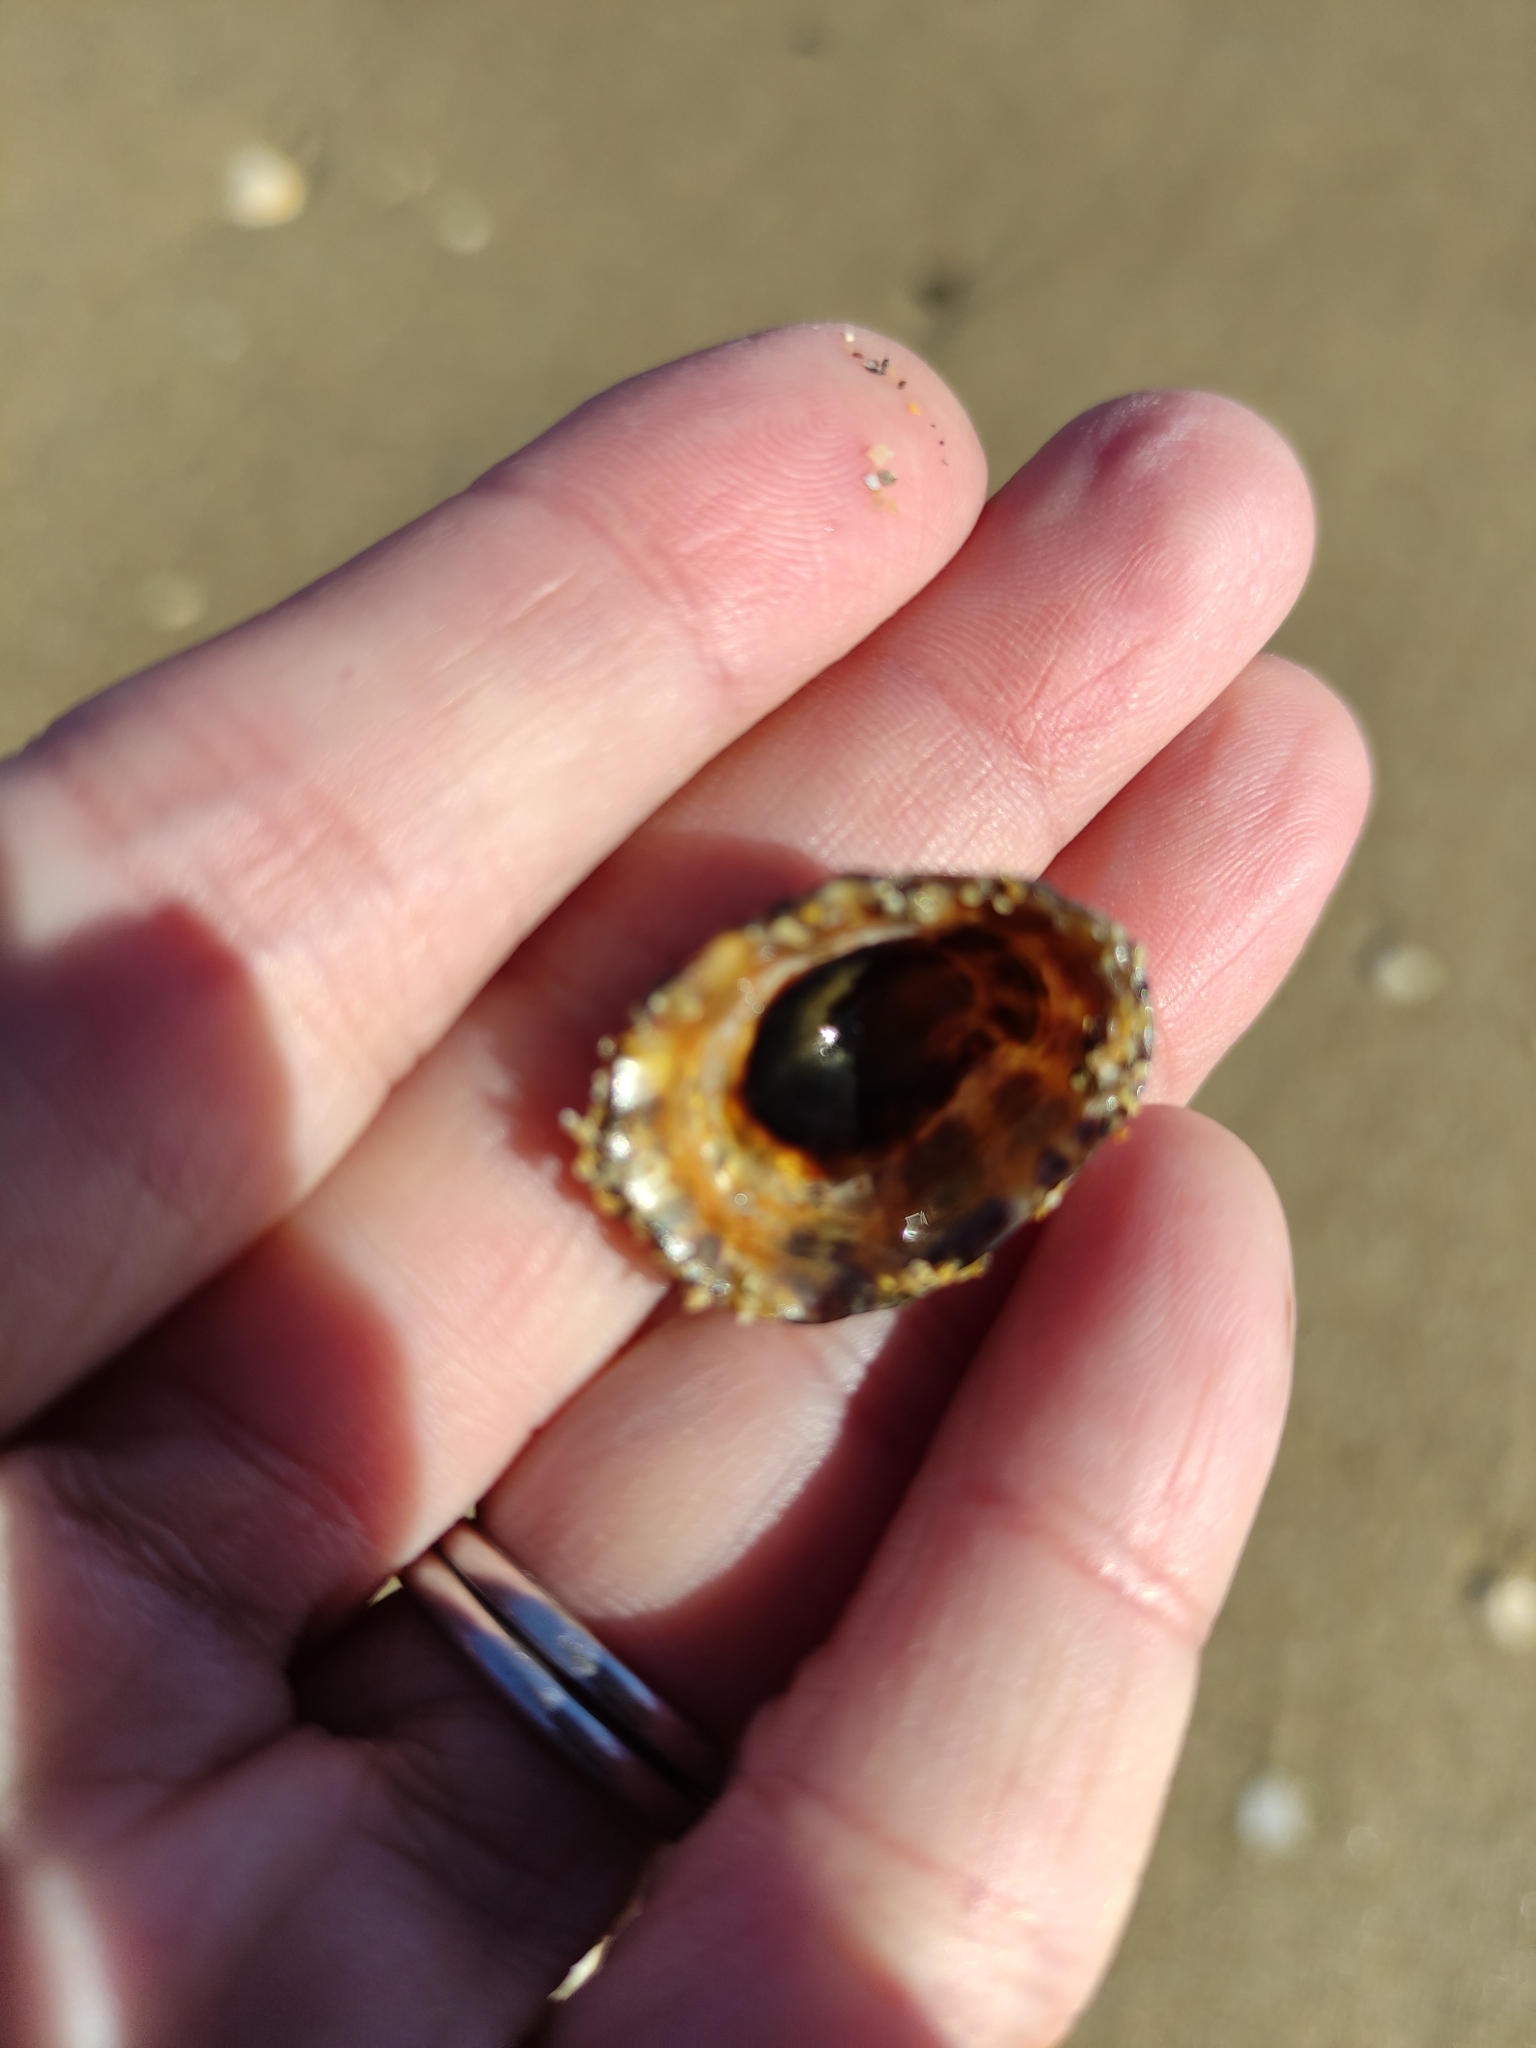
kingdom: Animalia
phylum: Mollusca
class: Gastropoda
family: Nacellidae
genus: Cellana
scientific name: Cellana ornata
